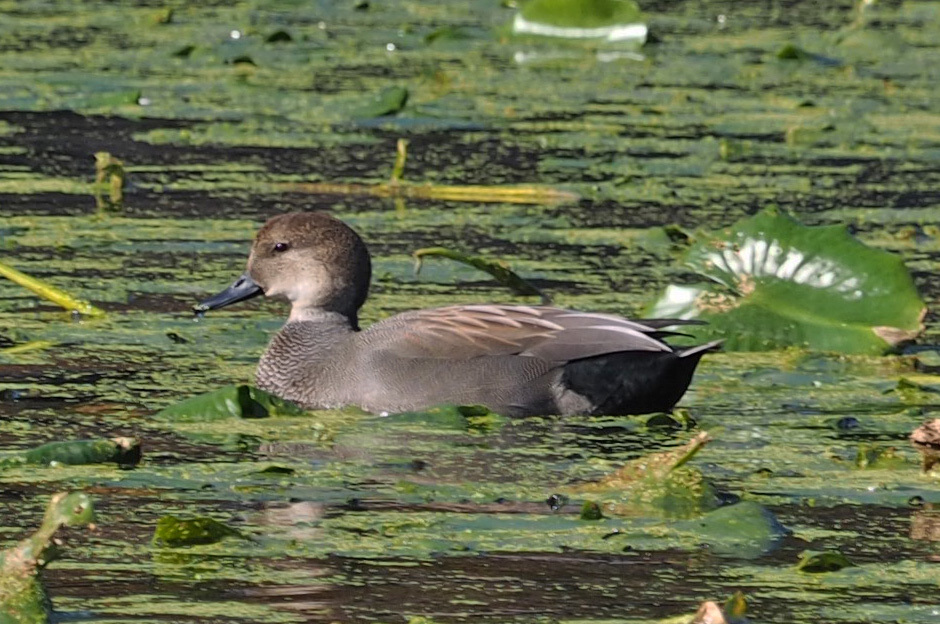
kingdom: Animalia
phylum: Chordata
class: Aves
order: Anseriformes
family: Anatidae
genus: Mareca
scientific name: Mareca strepera
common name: Gadwall
